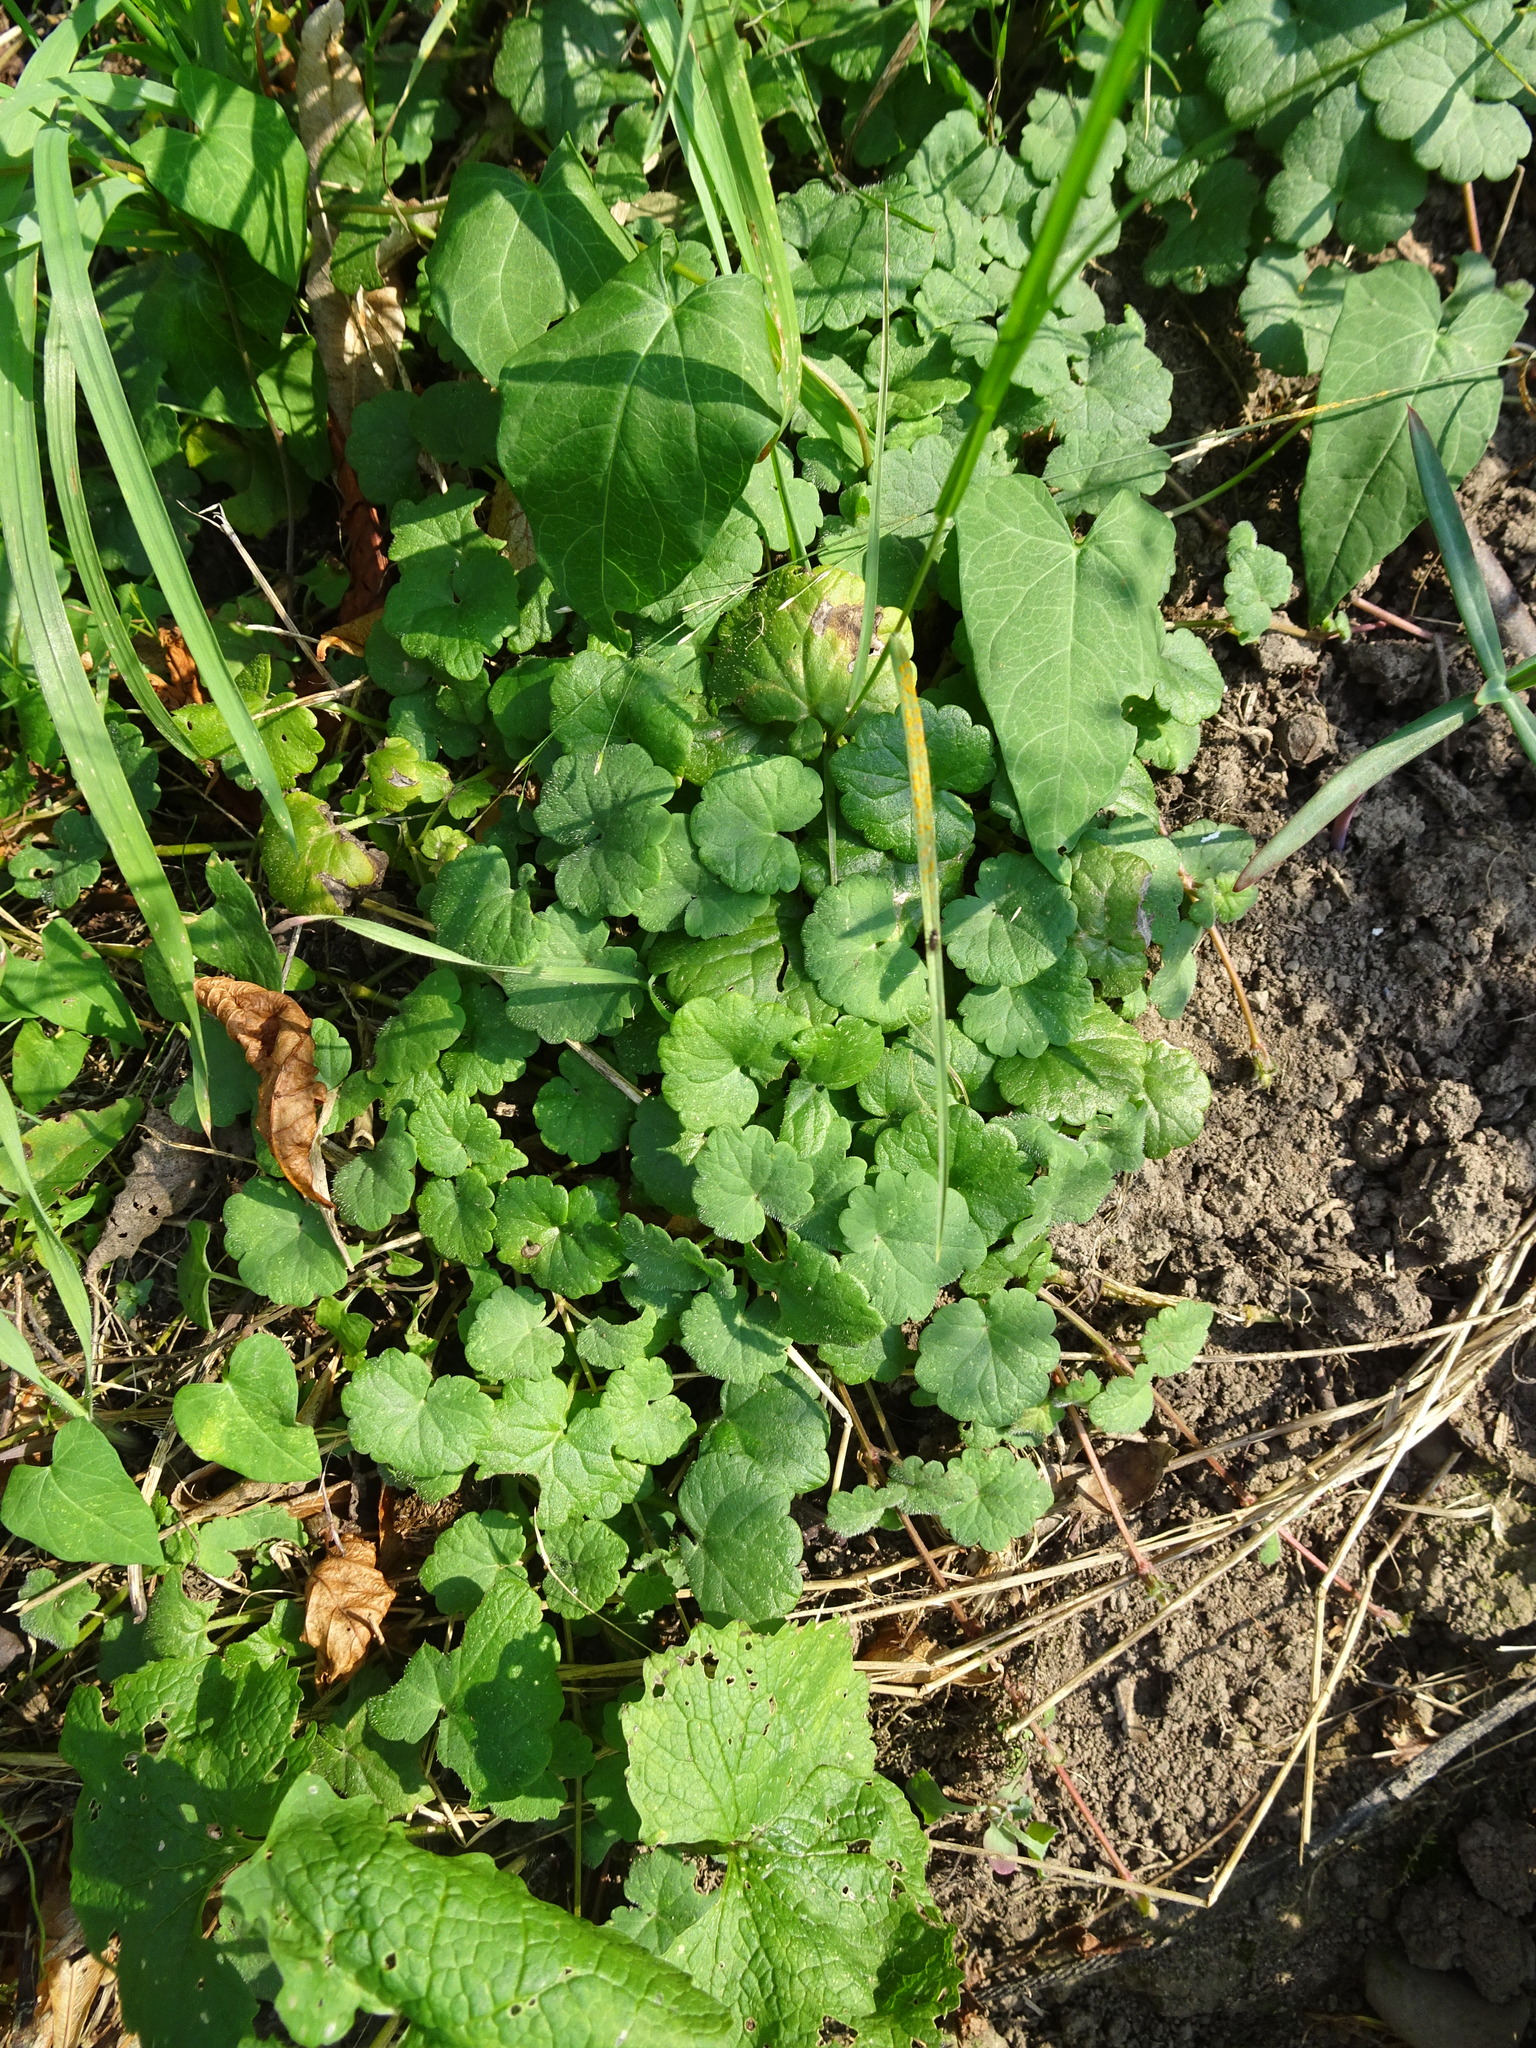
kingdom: Plantae
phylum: Tracheophyta
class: Magnoliopsida
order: Lamiales
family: Lamiaceae
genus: Glechoma
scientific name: Glechoma hederacea
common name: Ground ivy
